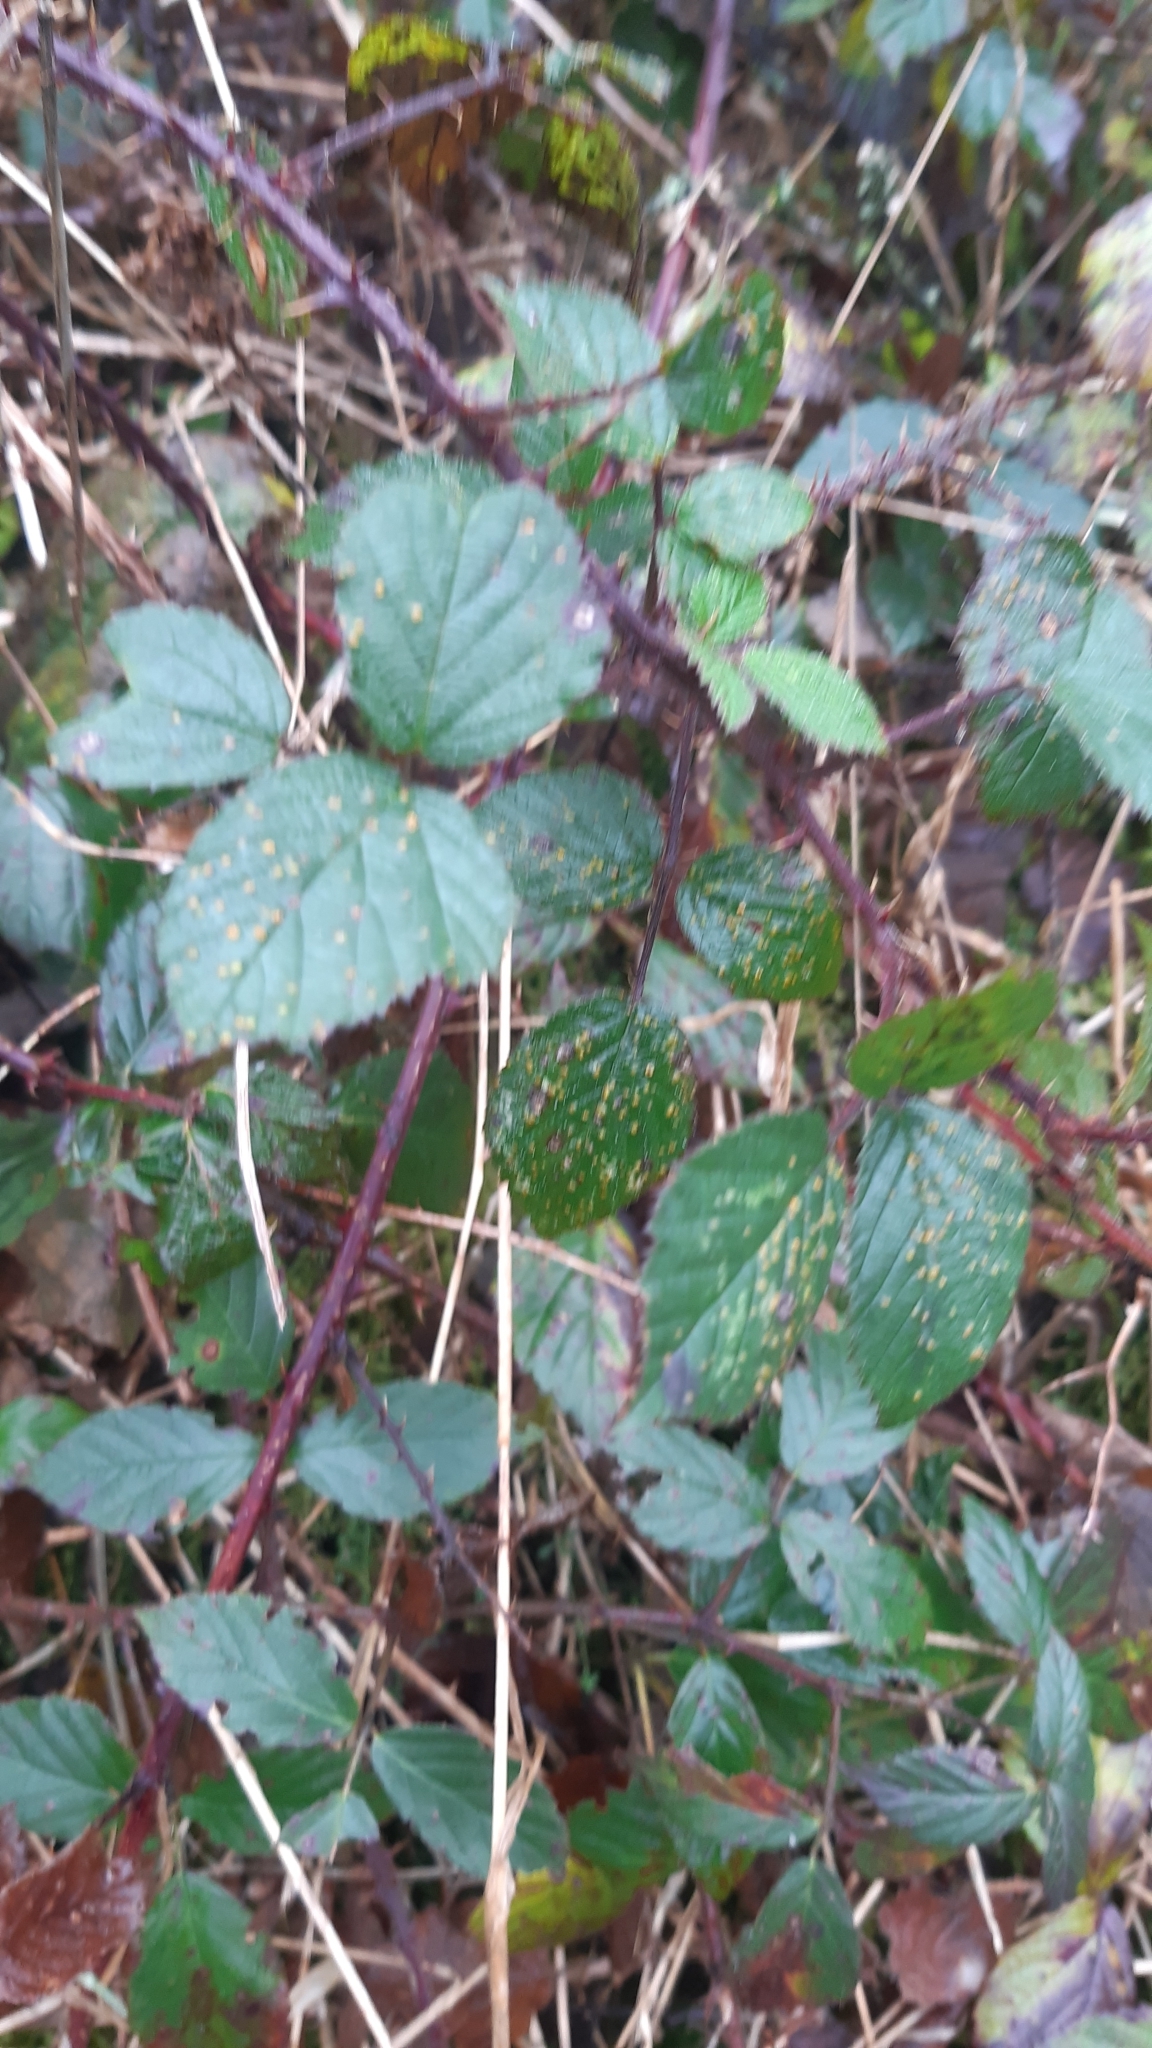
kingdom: Plantae
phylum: Tracheophyta
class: Magnoliopsida
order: Rosales
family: Rosaceae
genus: Rubus
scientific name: Rubus fruticosus
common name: Blackberry, bramble
